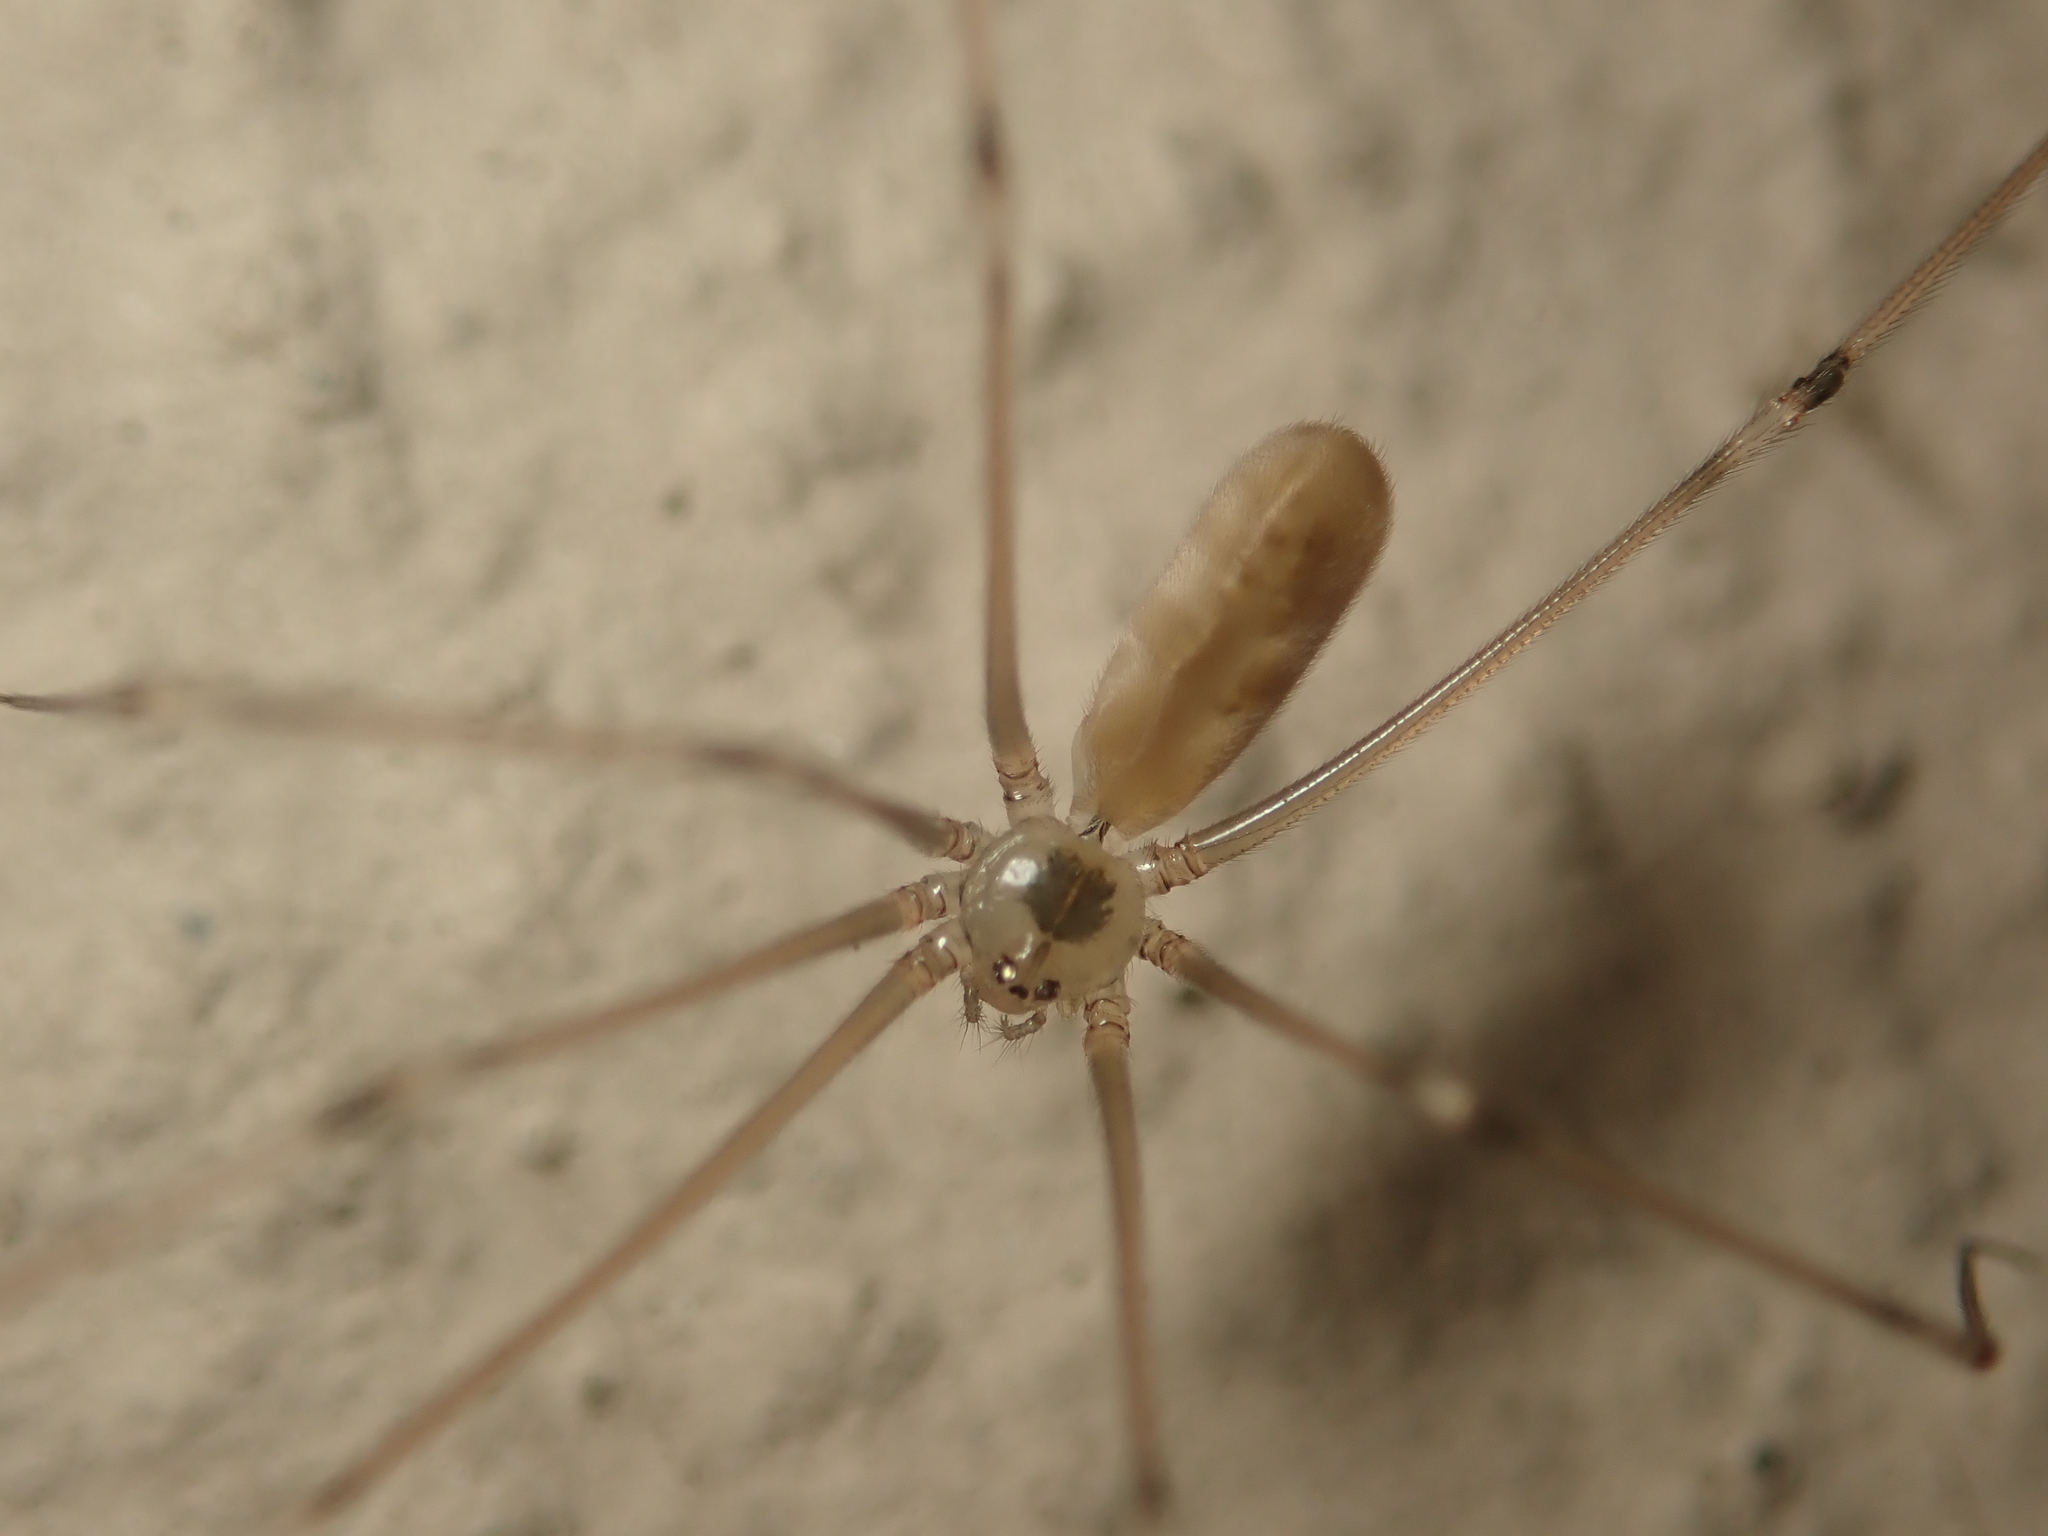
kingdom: Animalia
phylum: Arthropoda
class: Arachnida
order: Araneae
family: Pholcidae
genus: Pholcus
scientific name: Pholcus phalangioides
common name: Longbodied cellar spider
